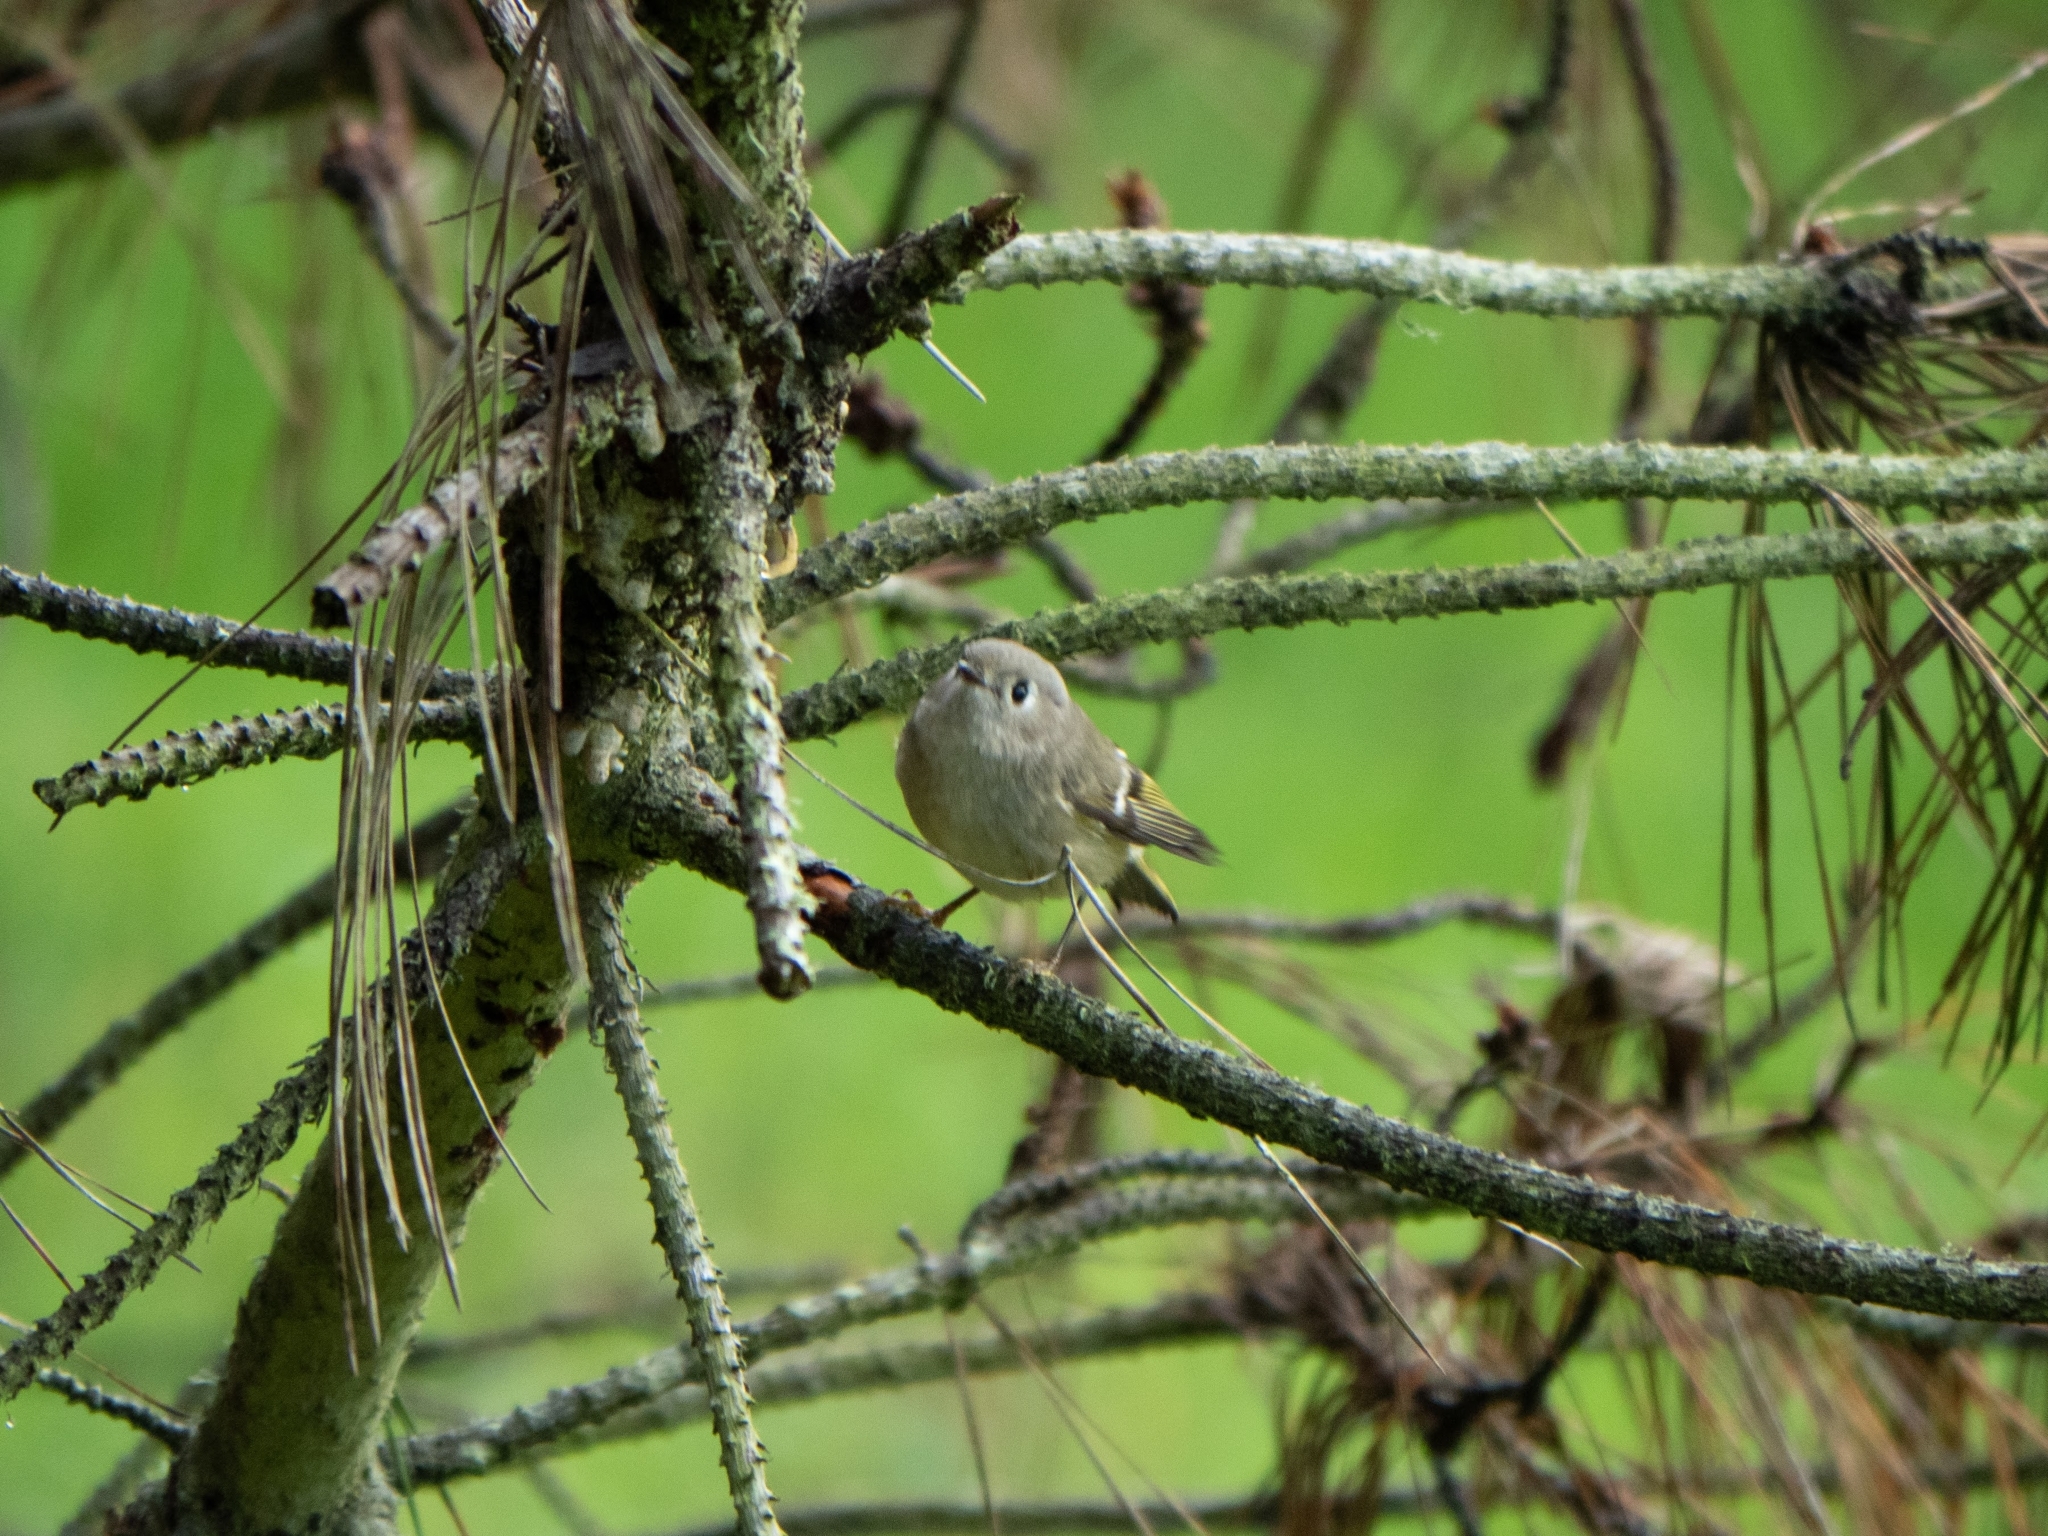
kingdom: Animalia
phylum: Chordata
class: Aves
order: Passeriformes
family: Regulidae
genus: Regulus
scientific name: Regulus calendula
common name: Ruby-crowned kinglet
